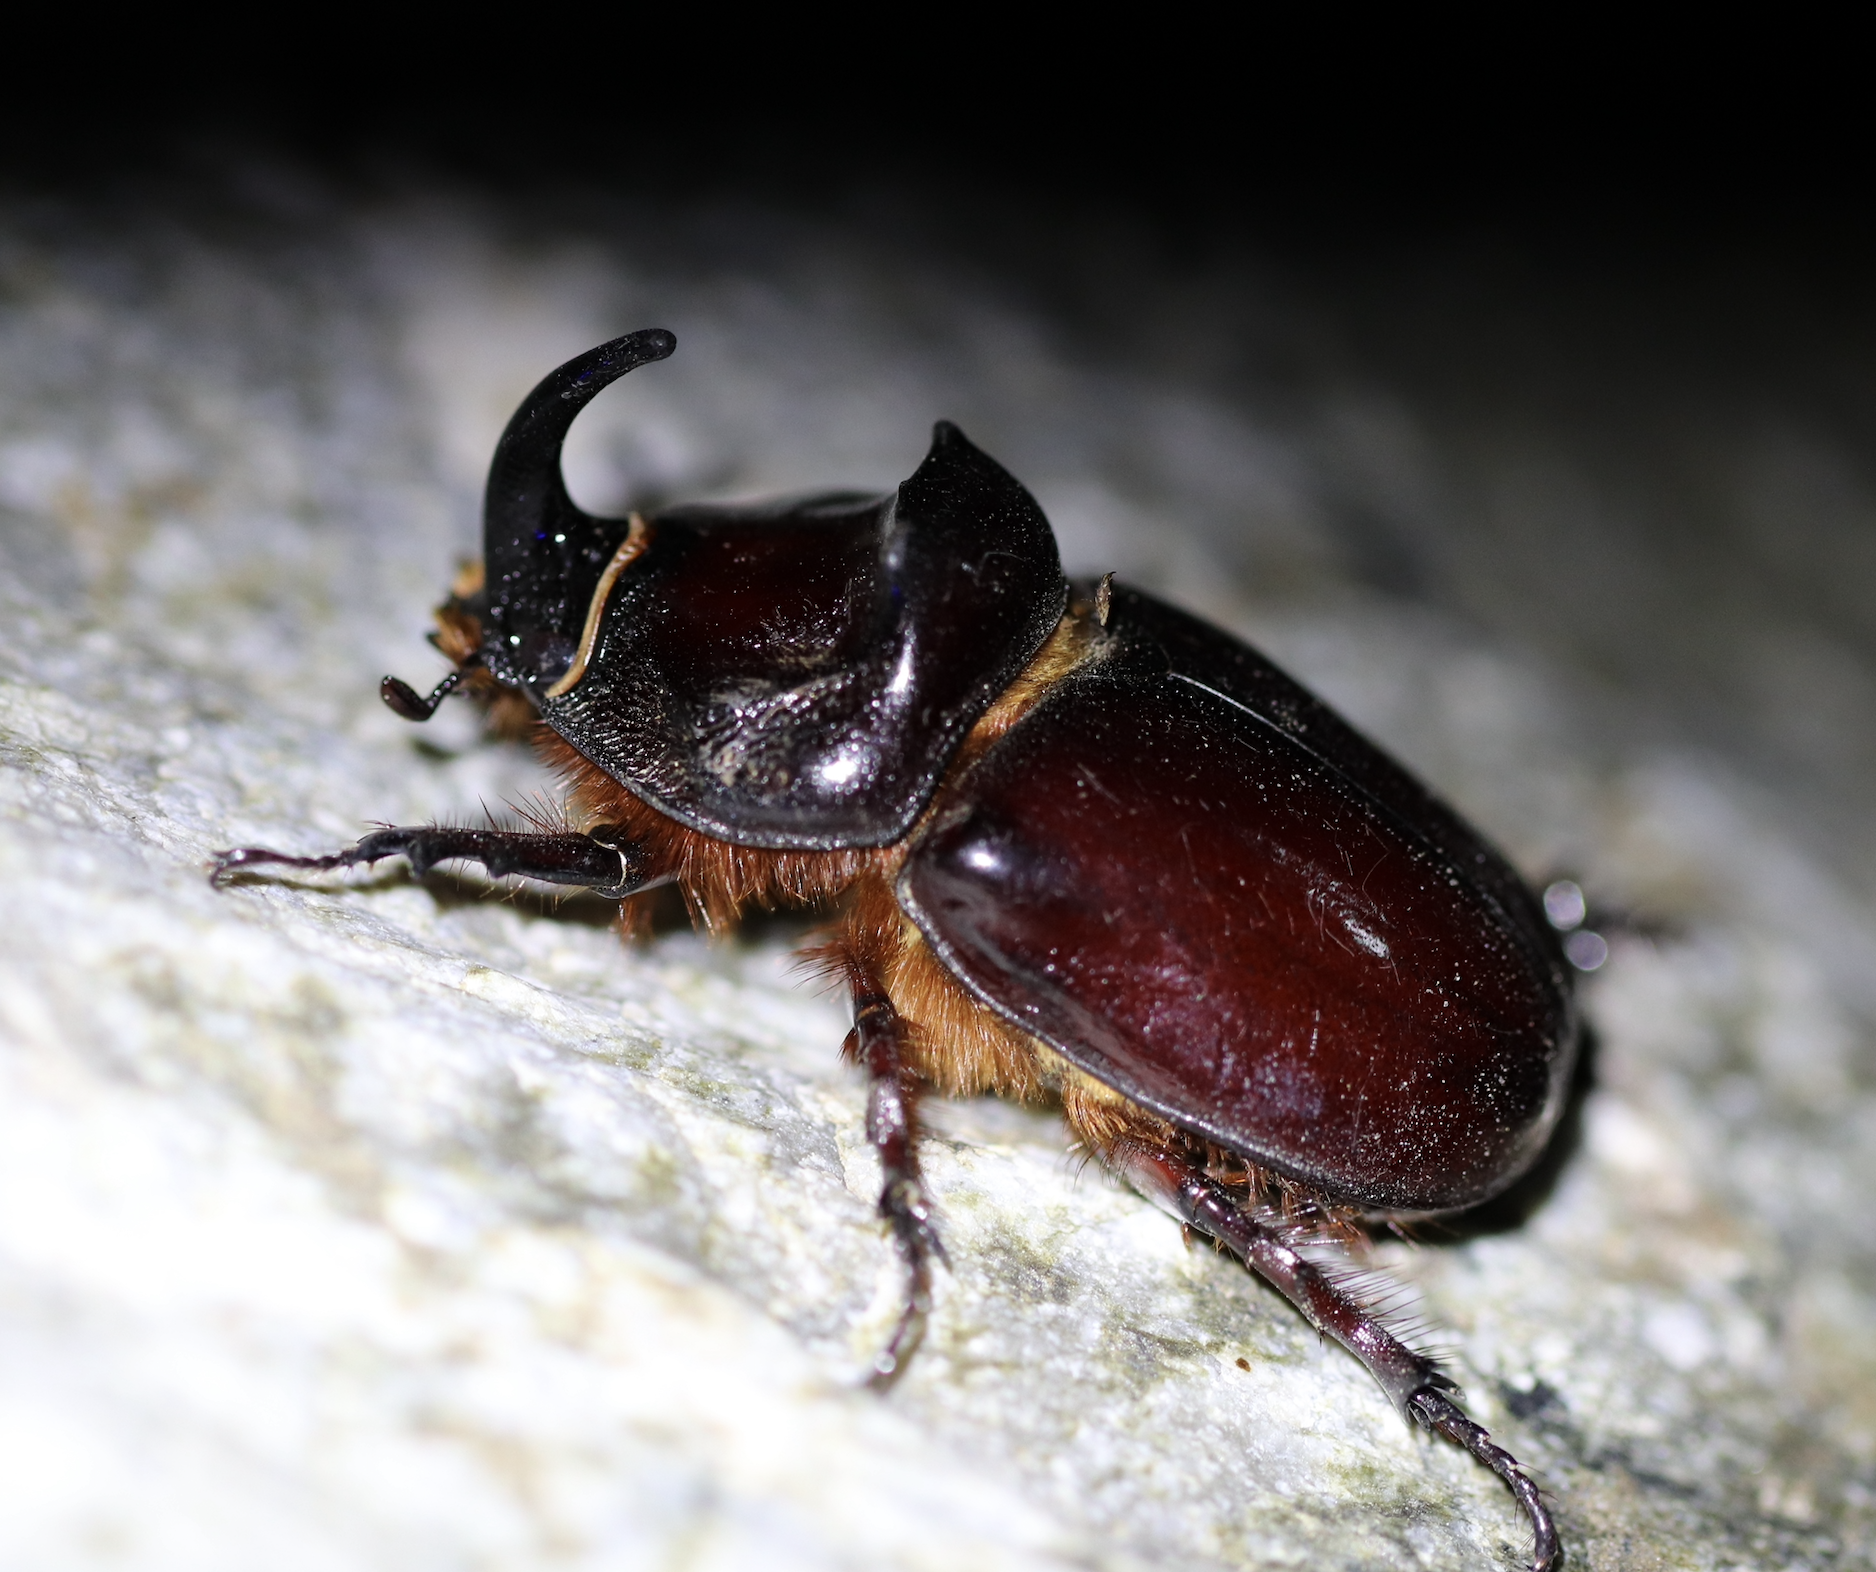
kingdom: Animalia
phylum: Arthropoda
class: Insecta
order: Coleoptera
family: Scarabaeidae
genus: Oryctes
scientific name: Oryctes nasicornis
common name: European rhinoceros beetle
